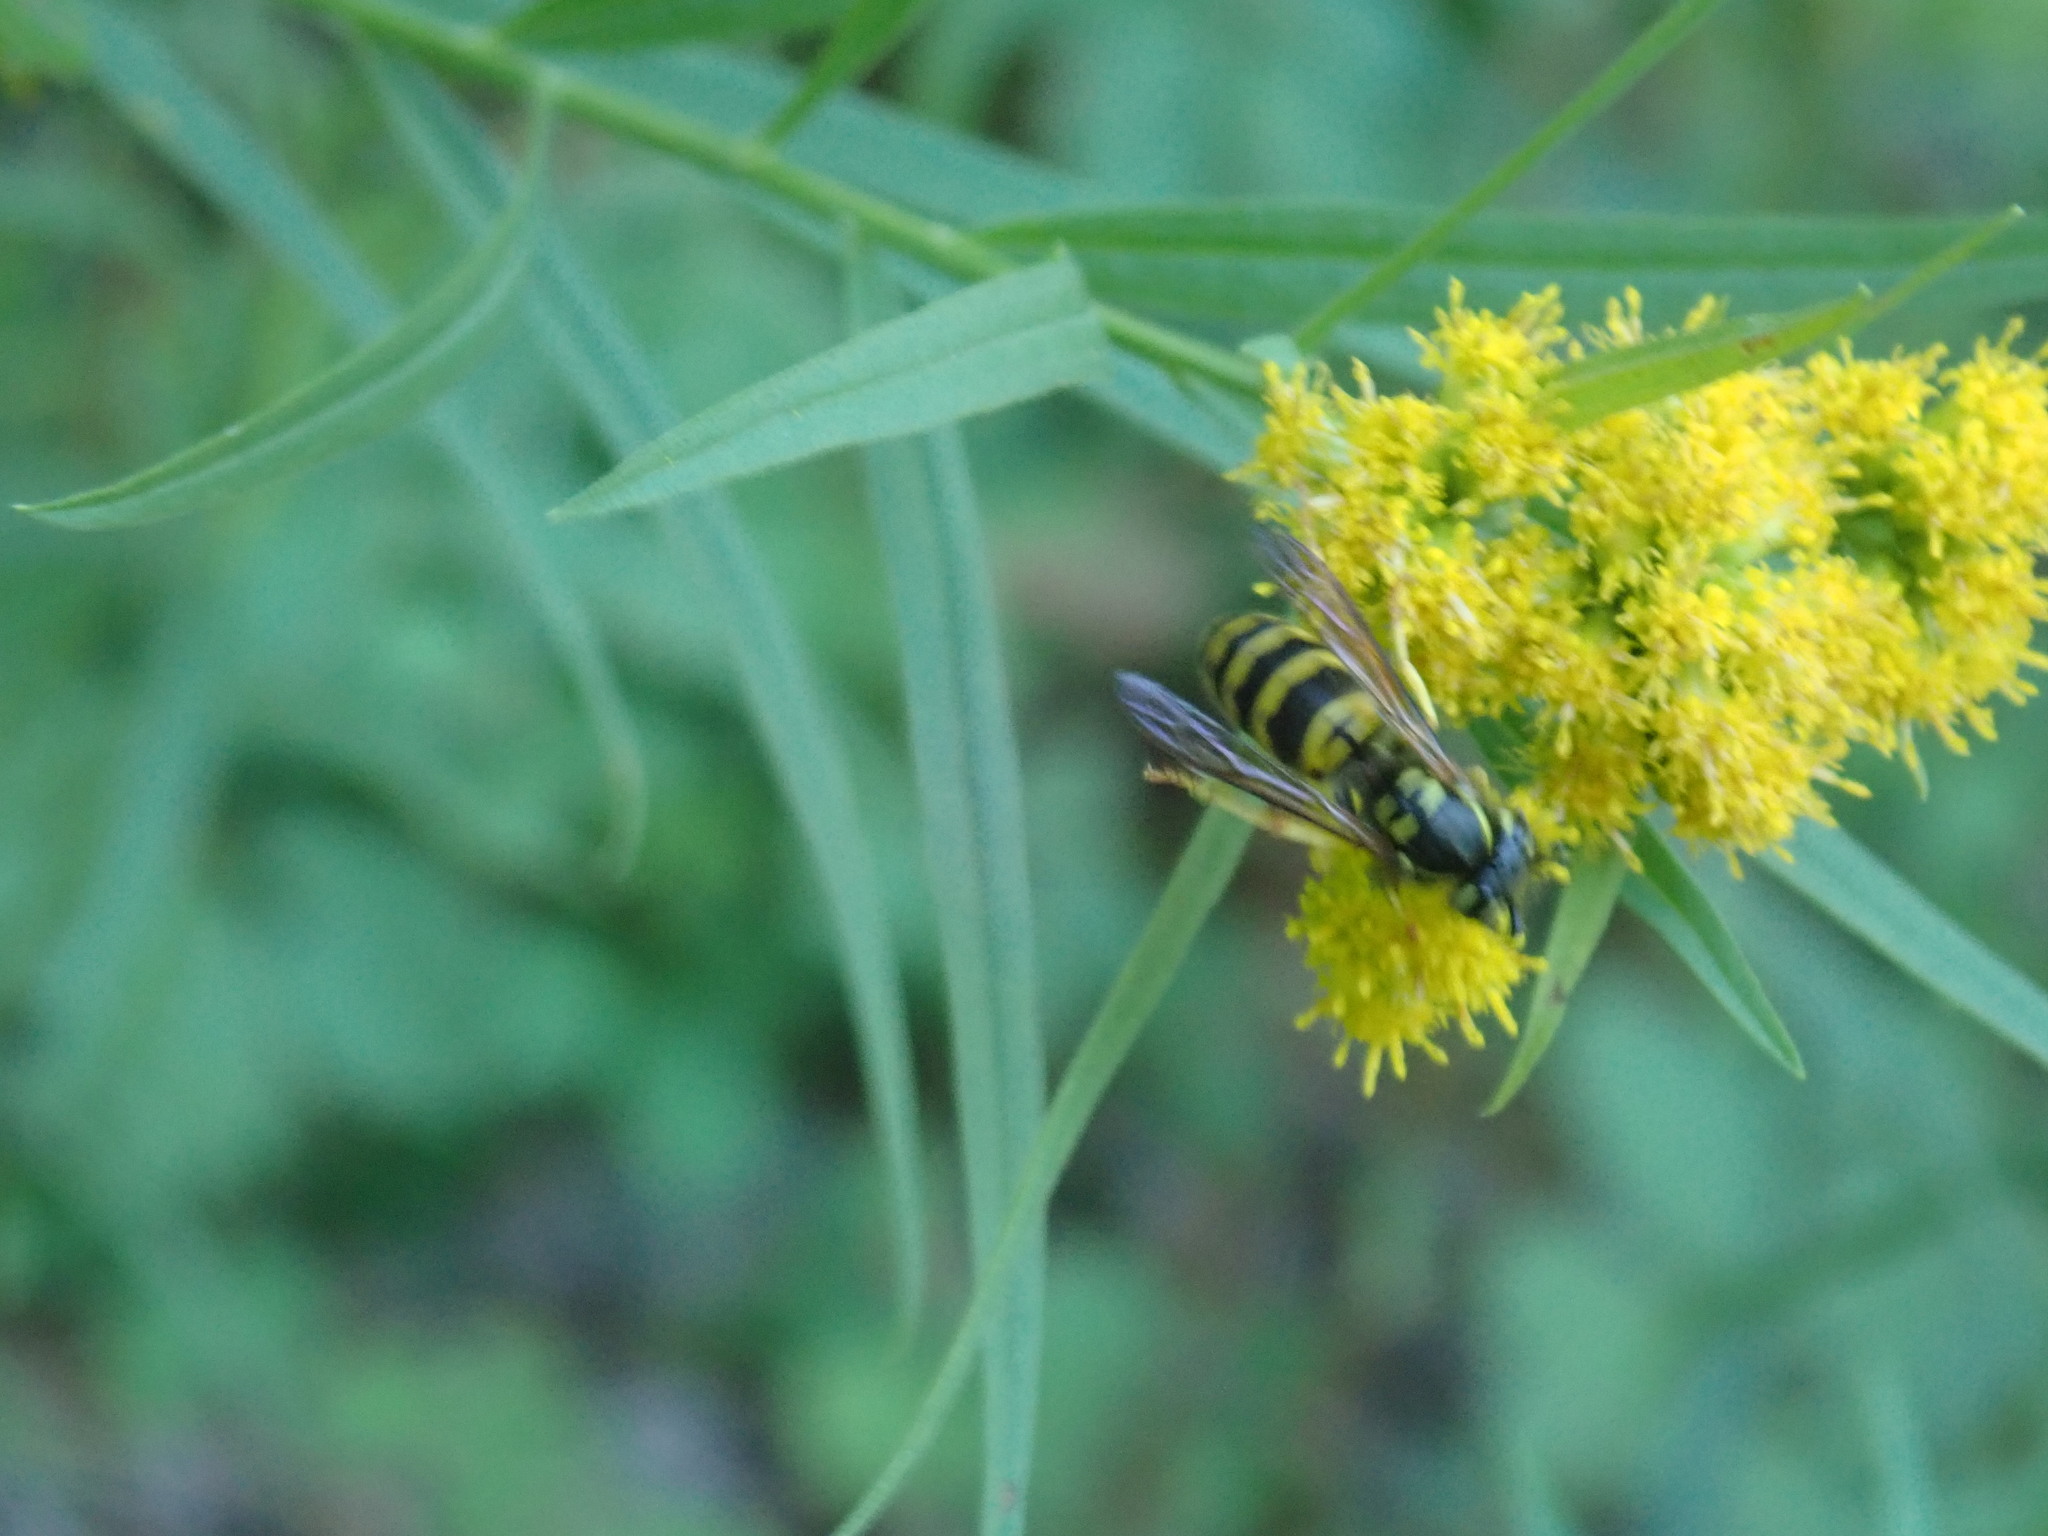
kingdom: Animalia
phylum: Arthropoda
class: Insecta
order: Hymenoptera
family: Vespidae
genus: Vespula
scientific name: Vespula maculifrons
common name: Eastern yellowjacket
